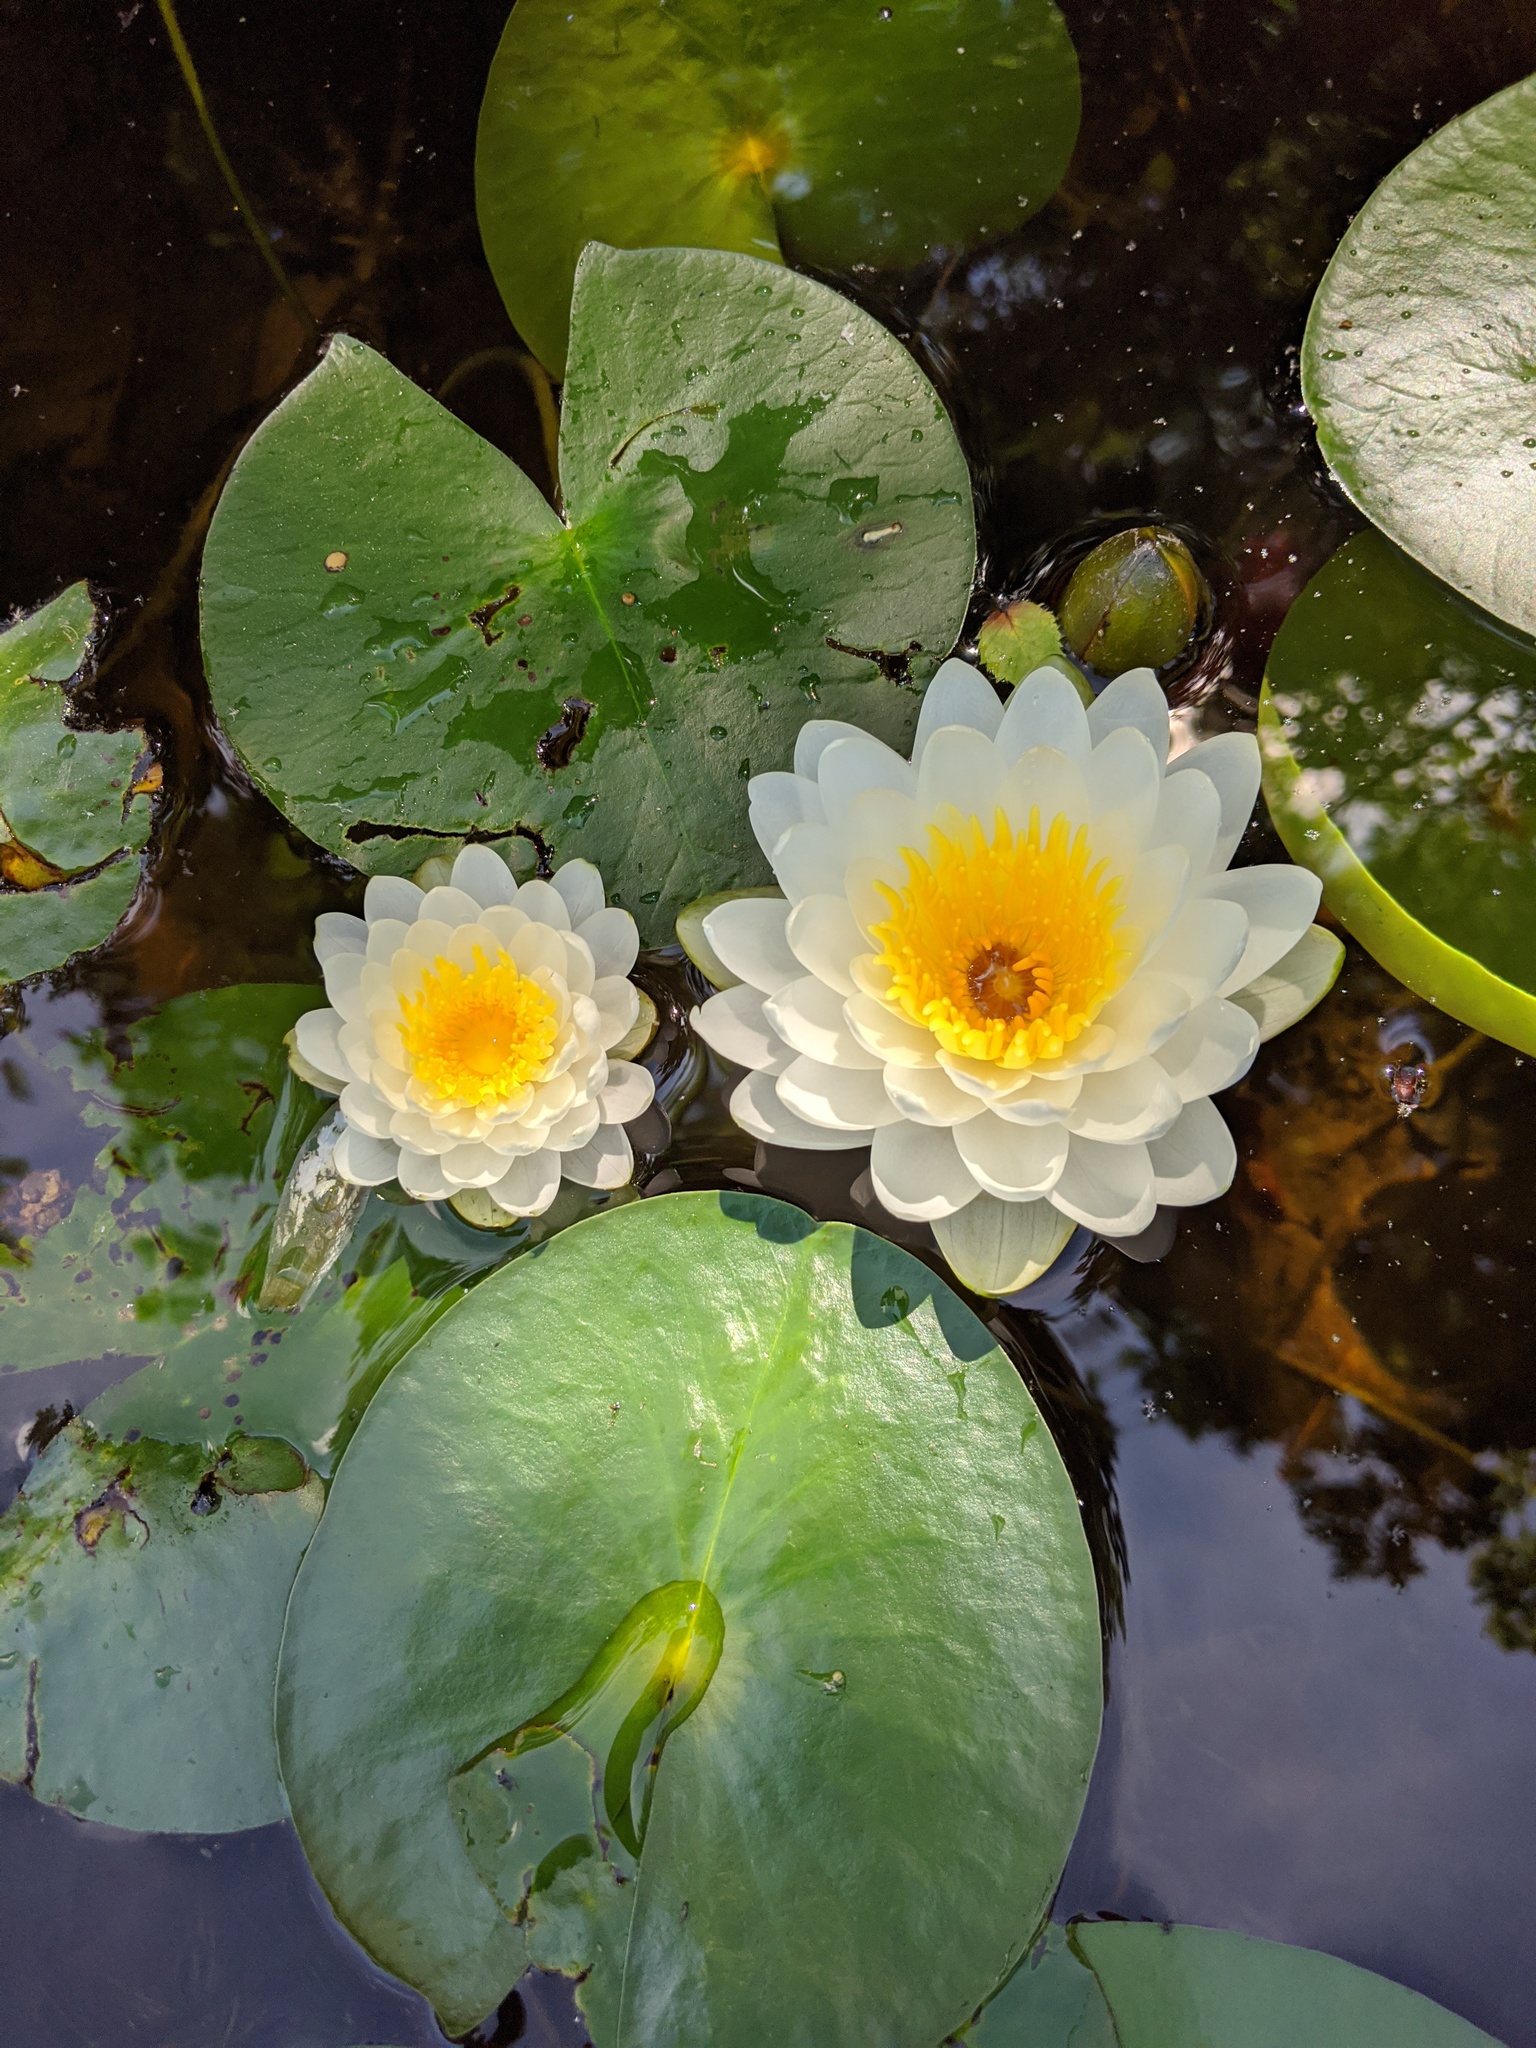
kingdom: Plantae
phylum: Tracheophyta
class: Magnoliopsida
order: Nymphaeales
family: Nymphaeaceae
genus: Nymphaea
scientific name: Nymphaea odorata
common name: Fragrant water-lily
